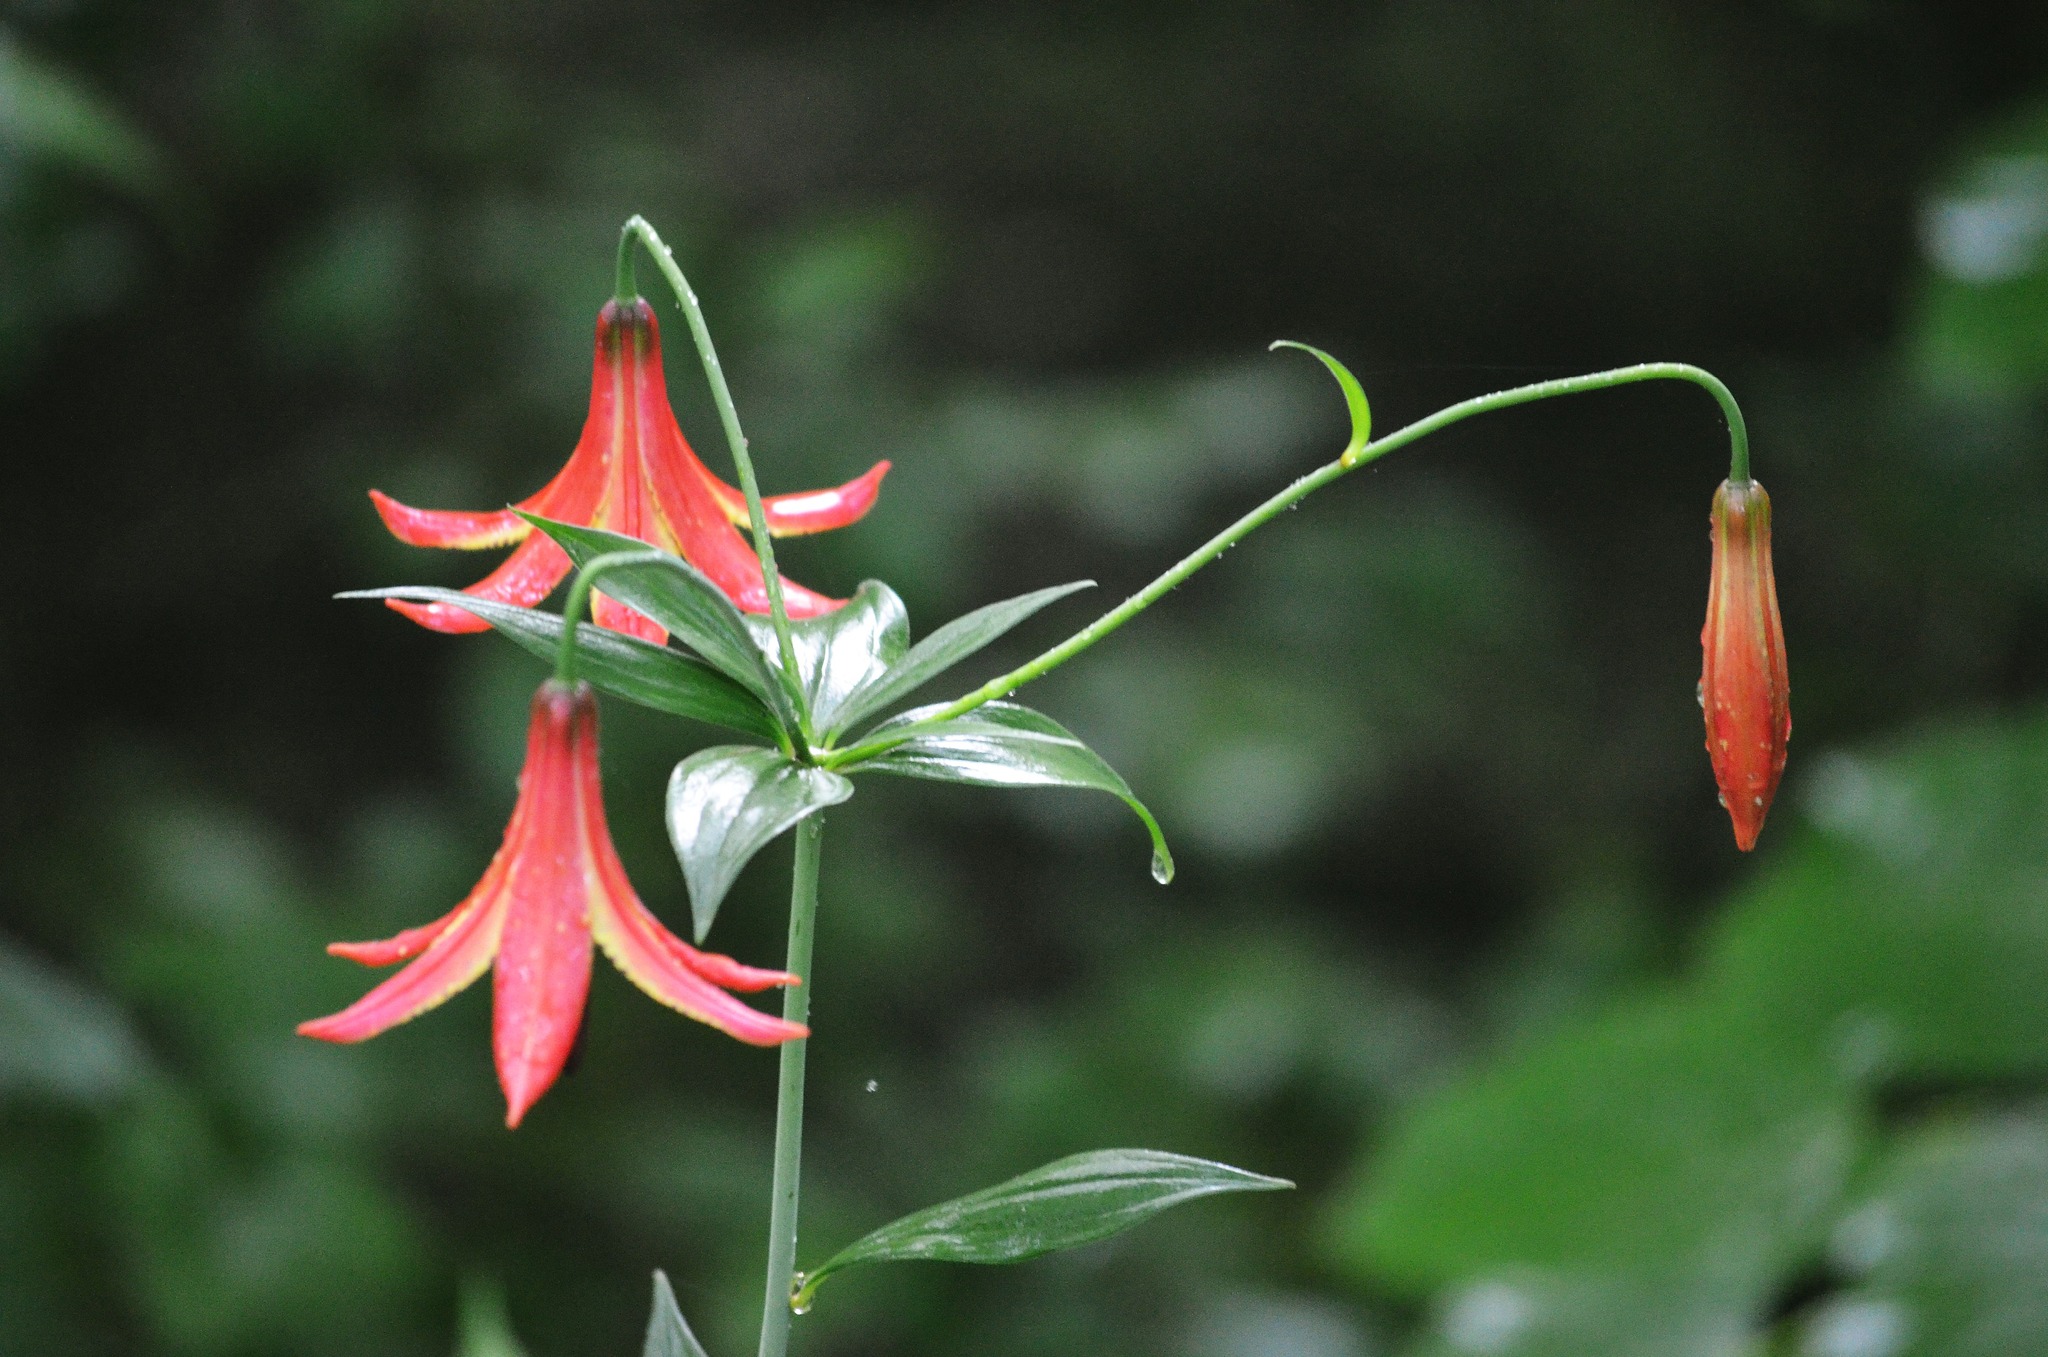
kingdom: Plantae
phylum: Tracheophyta
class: Liliopsida
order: Liliales
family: Liliaceae
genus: Lilium
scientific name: Lilium canadense
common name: Canada lily
